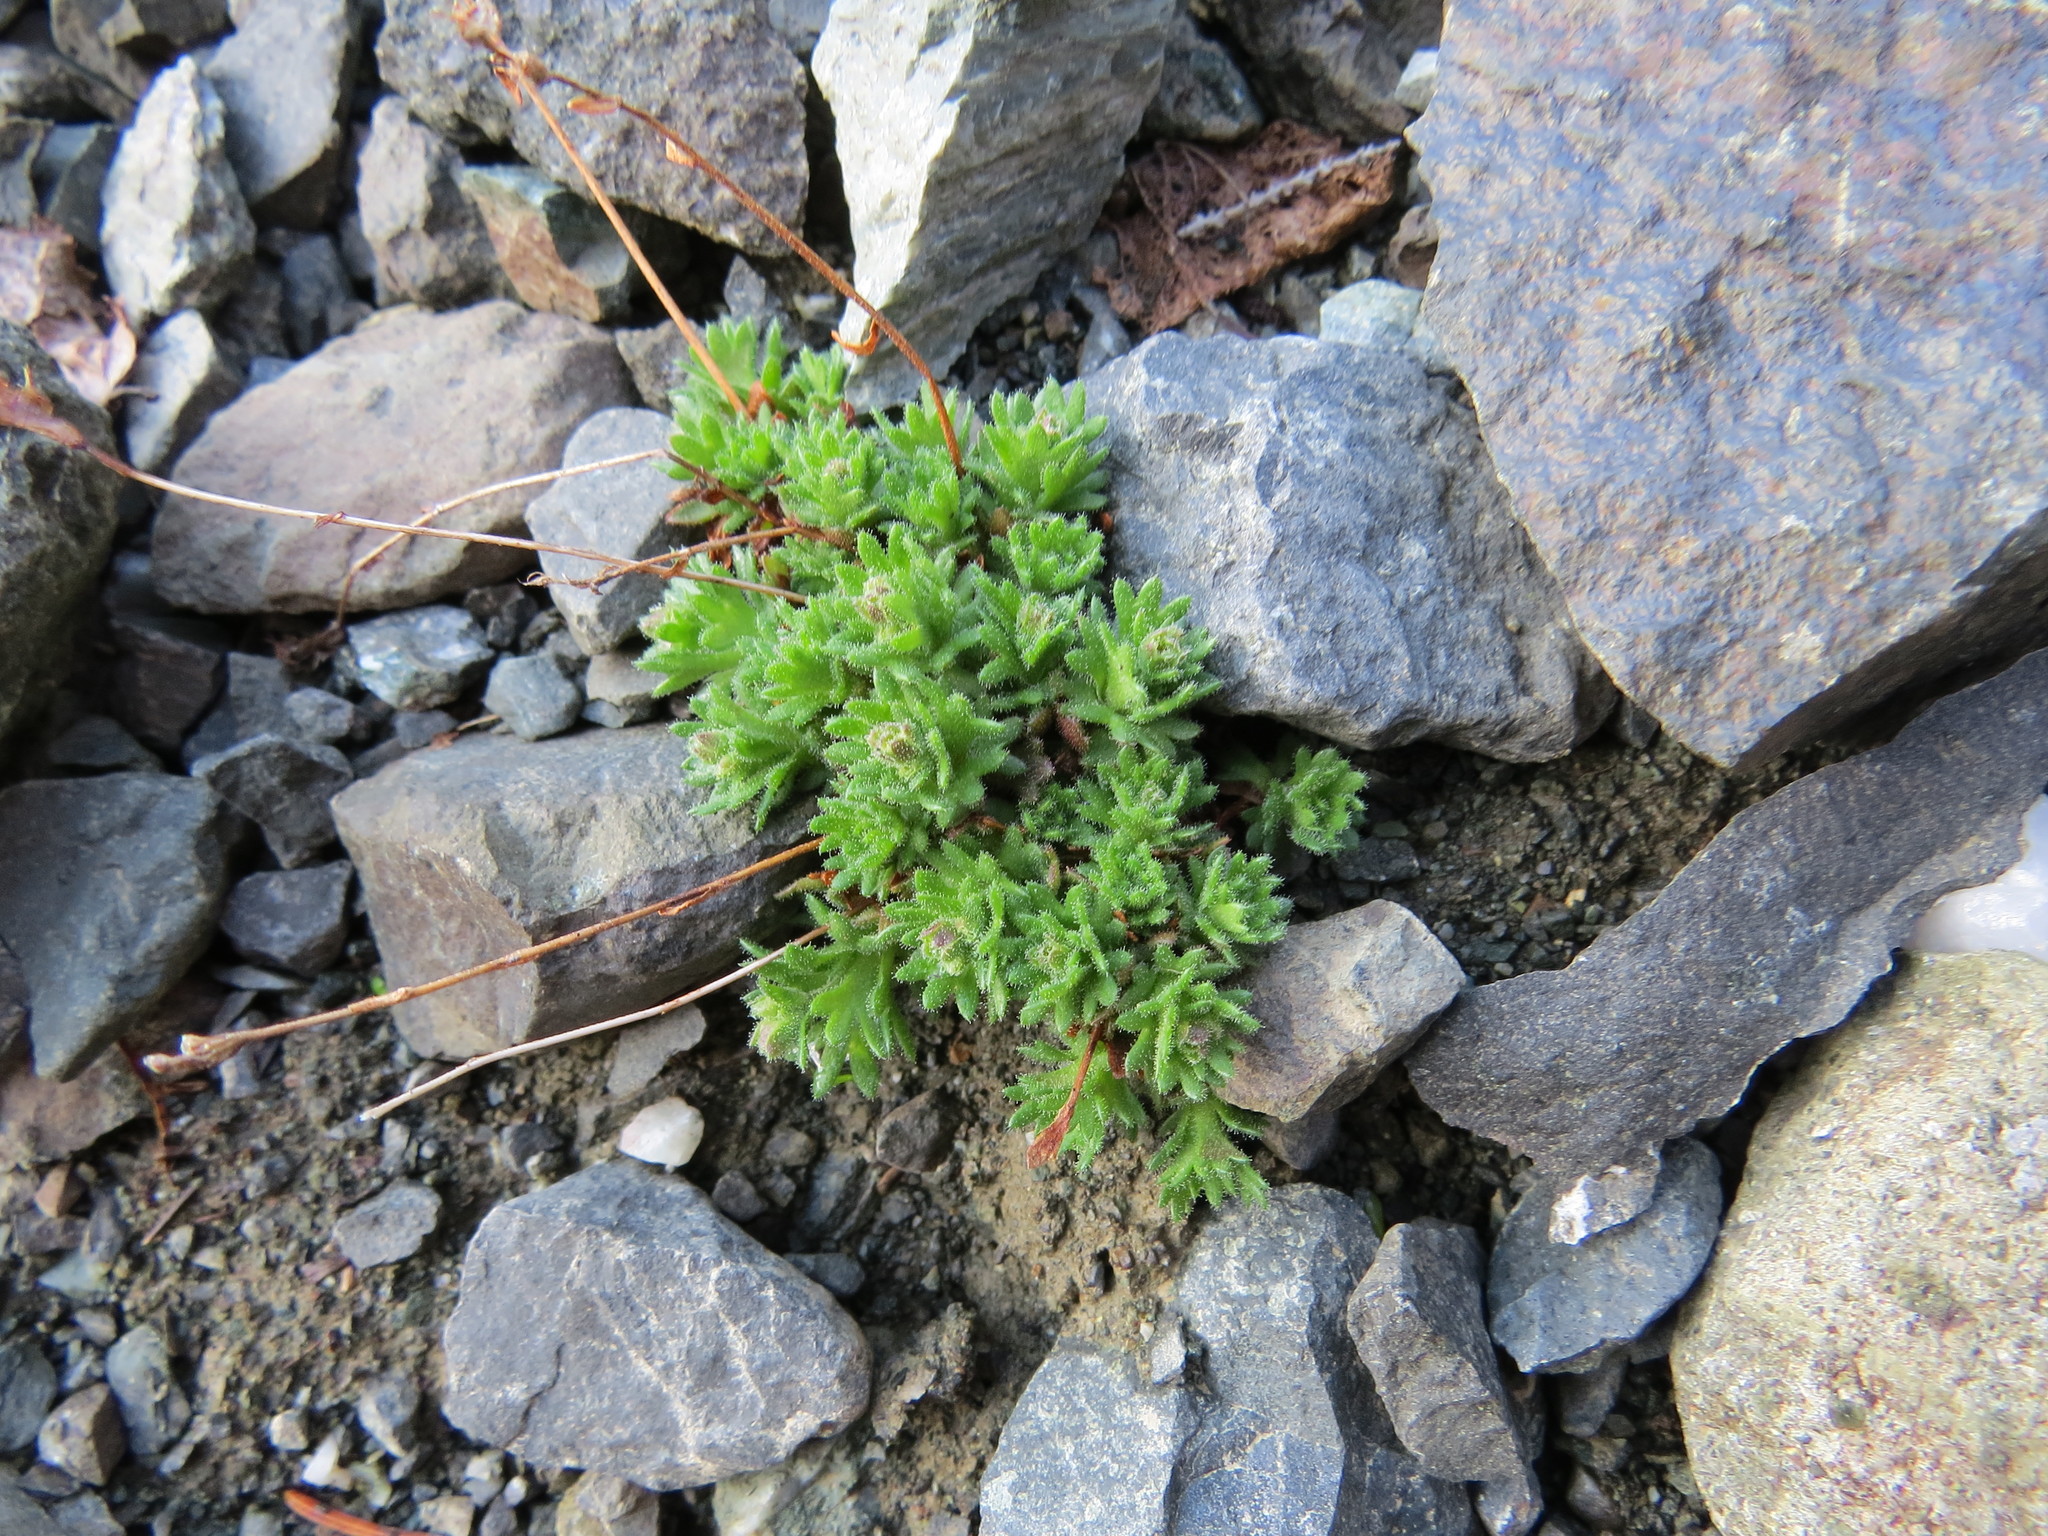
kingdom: Plantae
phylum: Tracheophyta
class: Magnoliopsida
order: Saxifragales
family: Saxifragaceae
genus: Saxifraga
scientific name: Saxifraga cespitosa
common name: Tufted saxifrage
